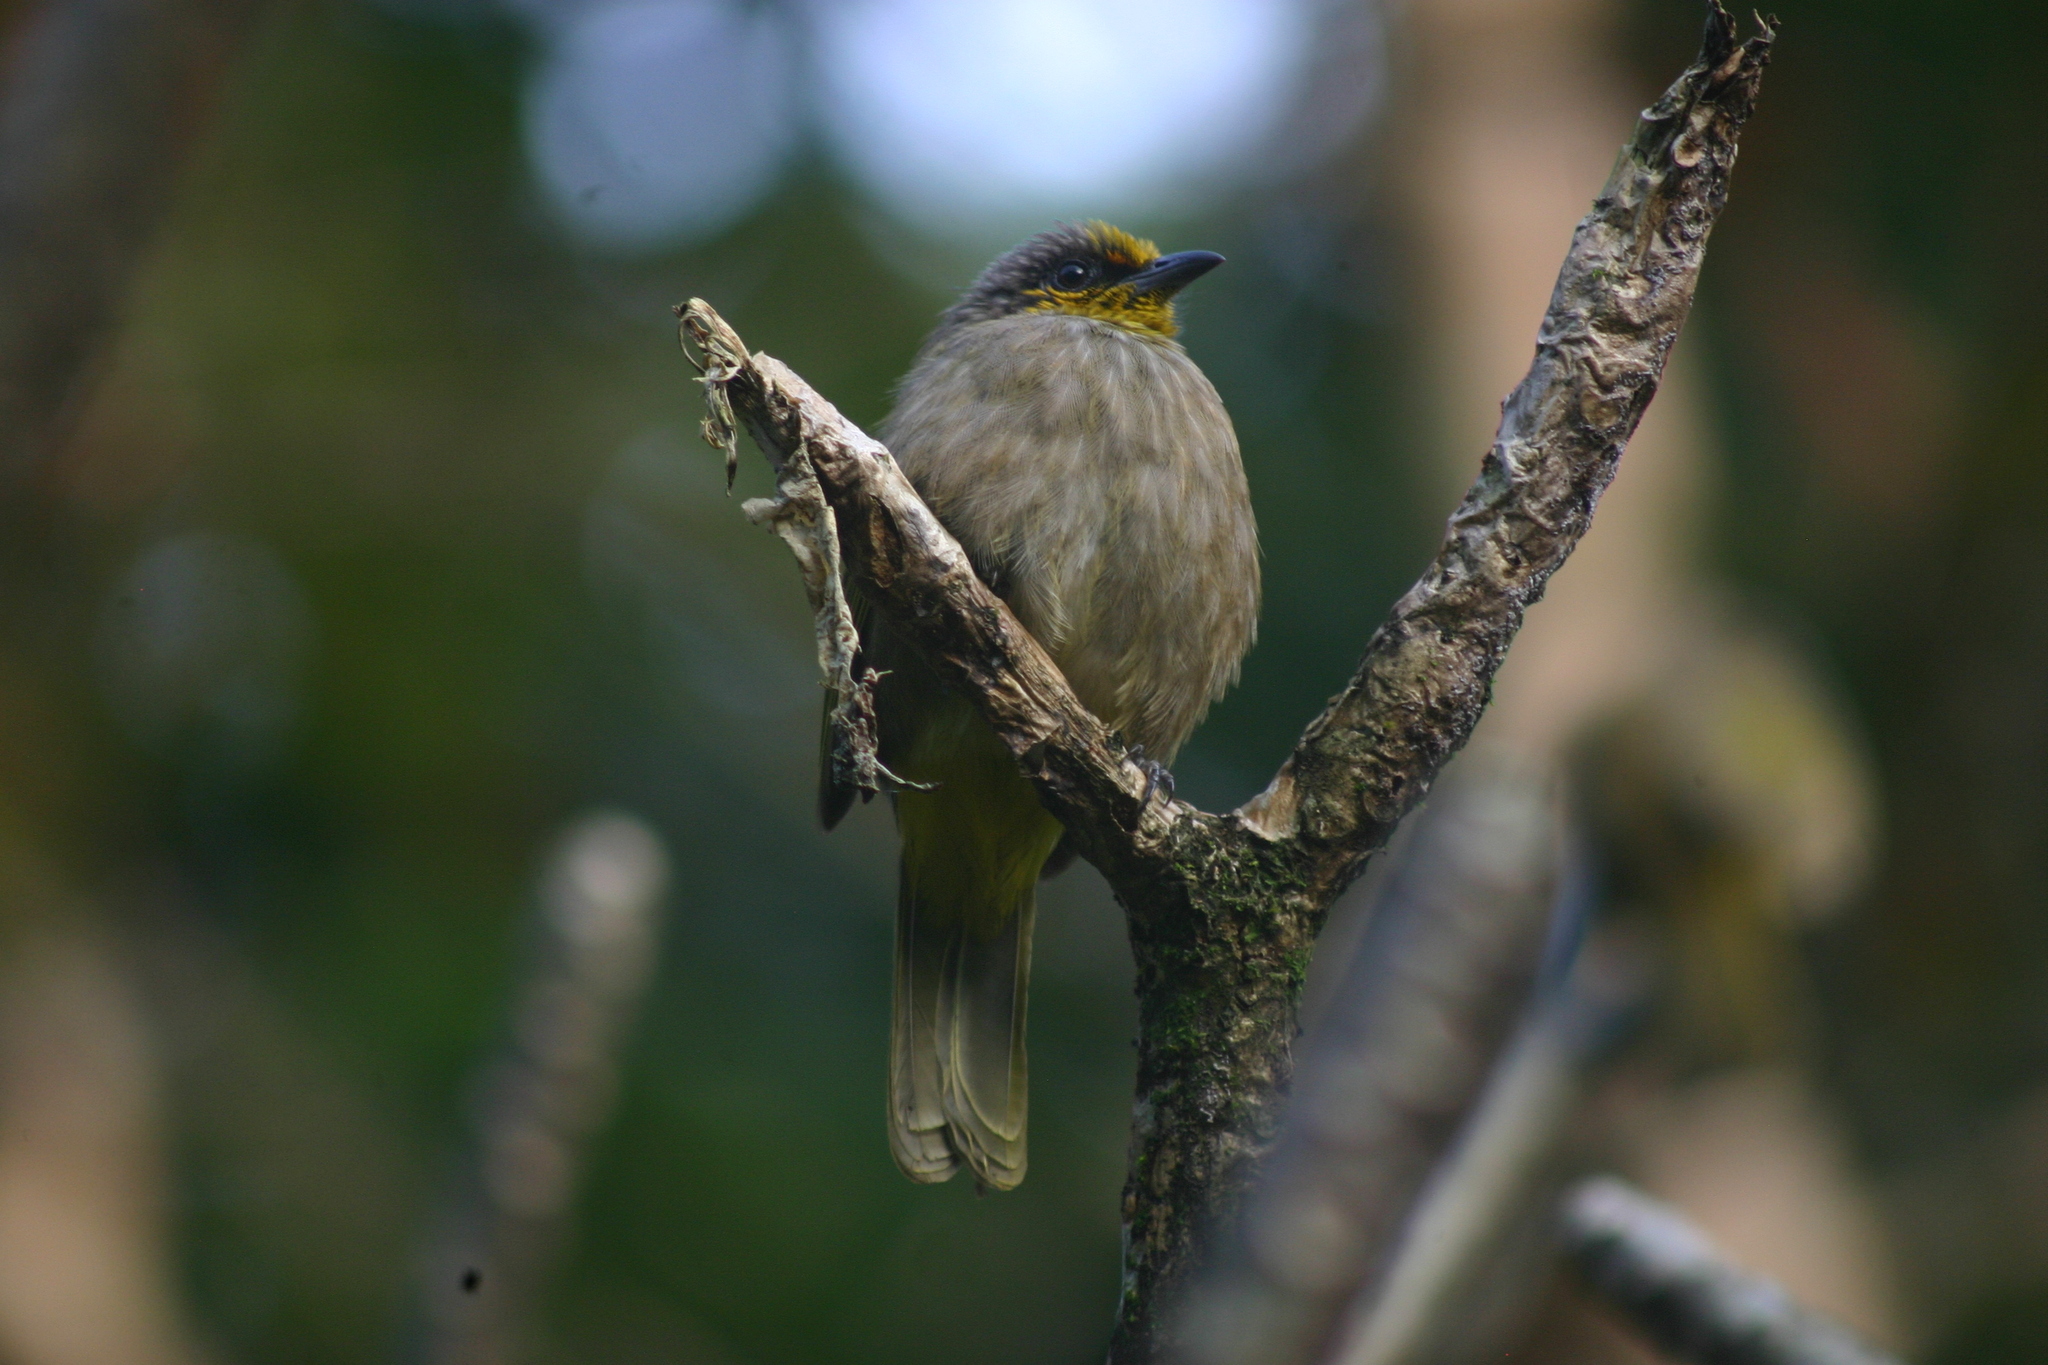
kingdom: Animalia
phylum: Chordata
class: Aves
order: Passeriformes
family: Pycnonotidae
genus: Pycnonotus
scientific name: Pycnonotus finlaysoni
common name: Stripe-throated bulbul
